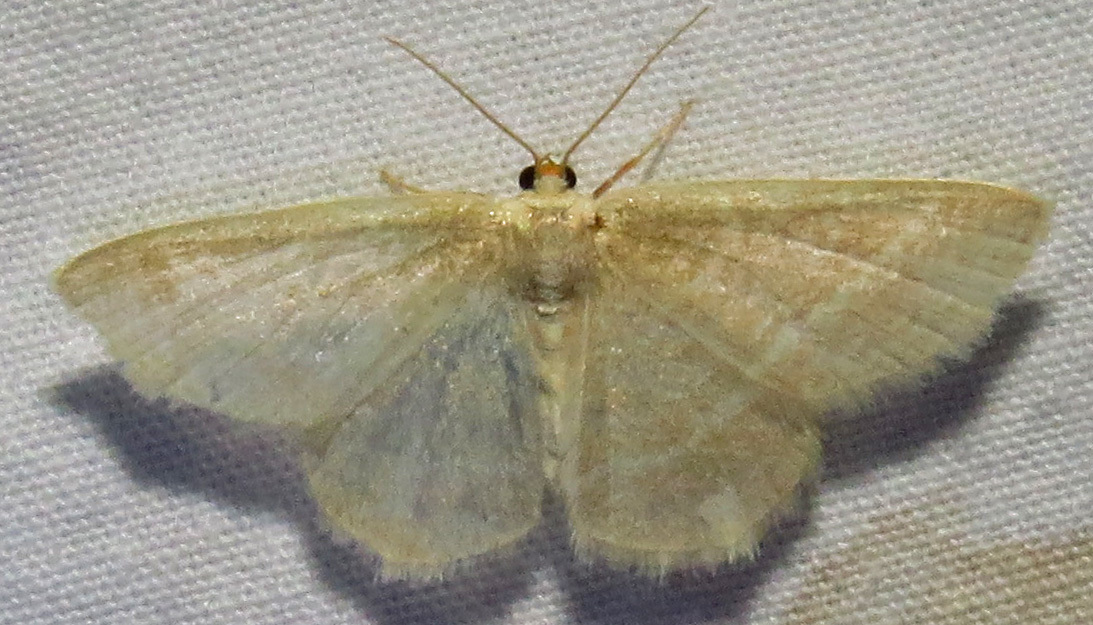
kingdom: Animalia
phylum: Arthropoda
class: Insecta
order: Lepidoptera
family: Geometridae
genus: Chlorochlamys
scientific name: Chlorochlamys chloroleucaria
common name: Blackberry looper
